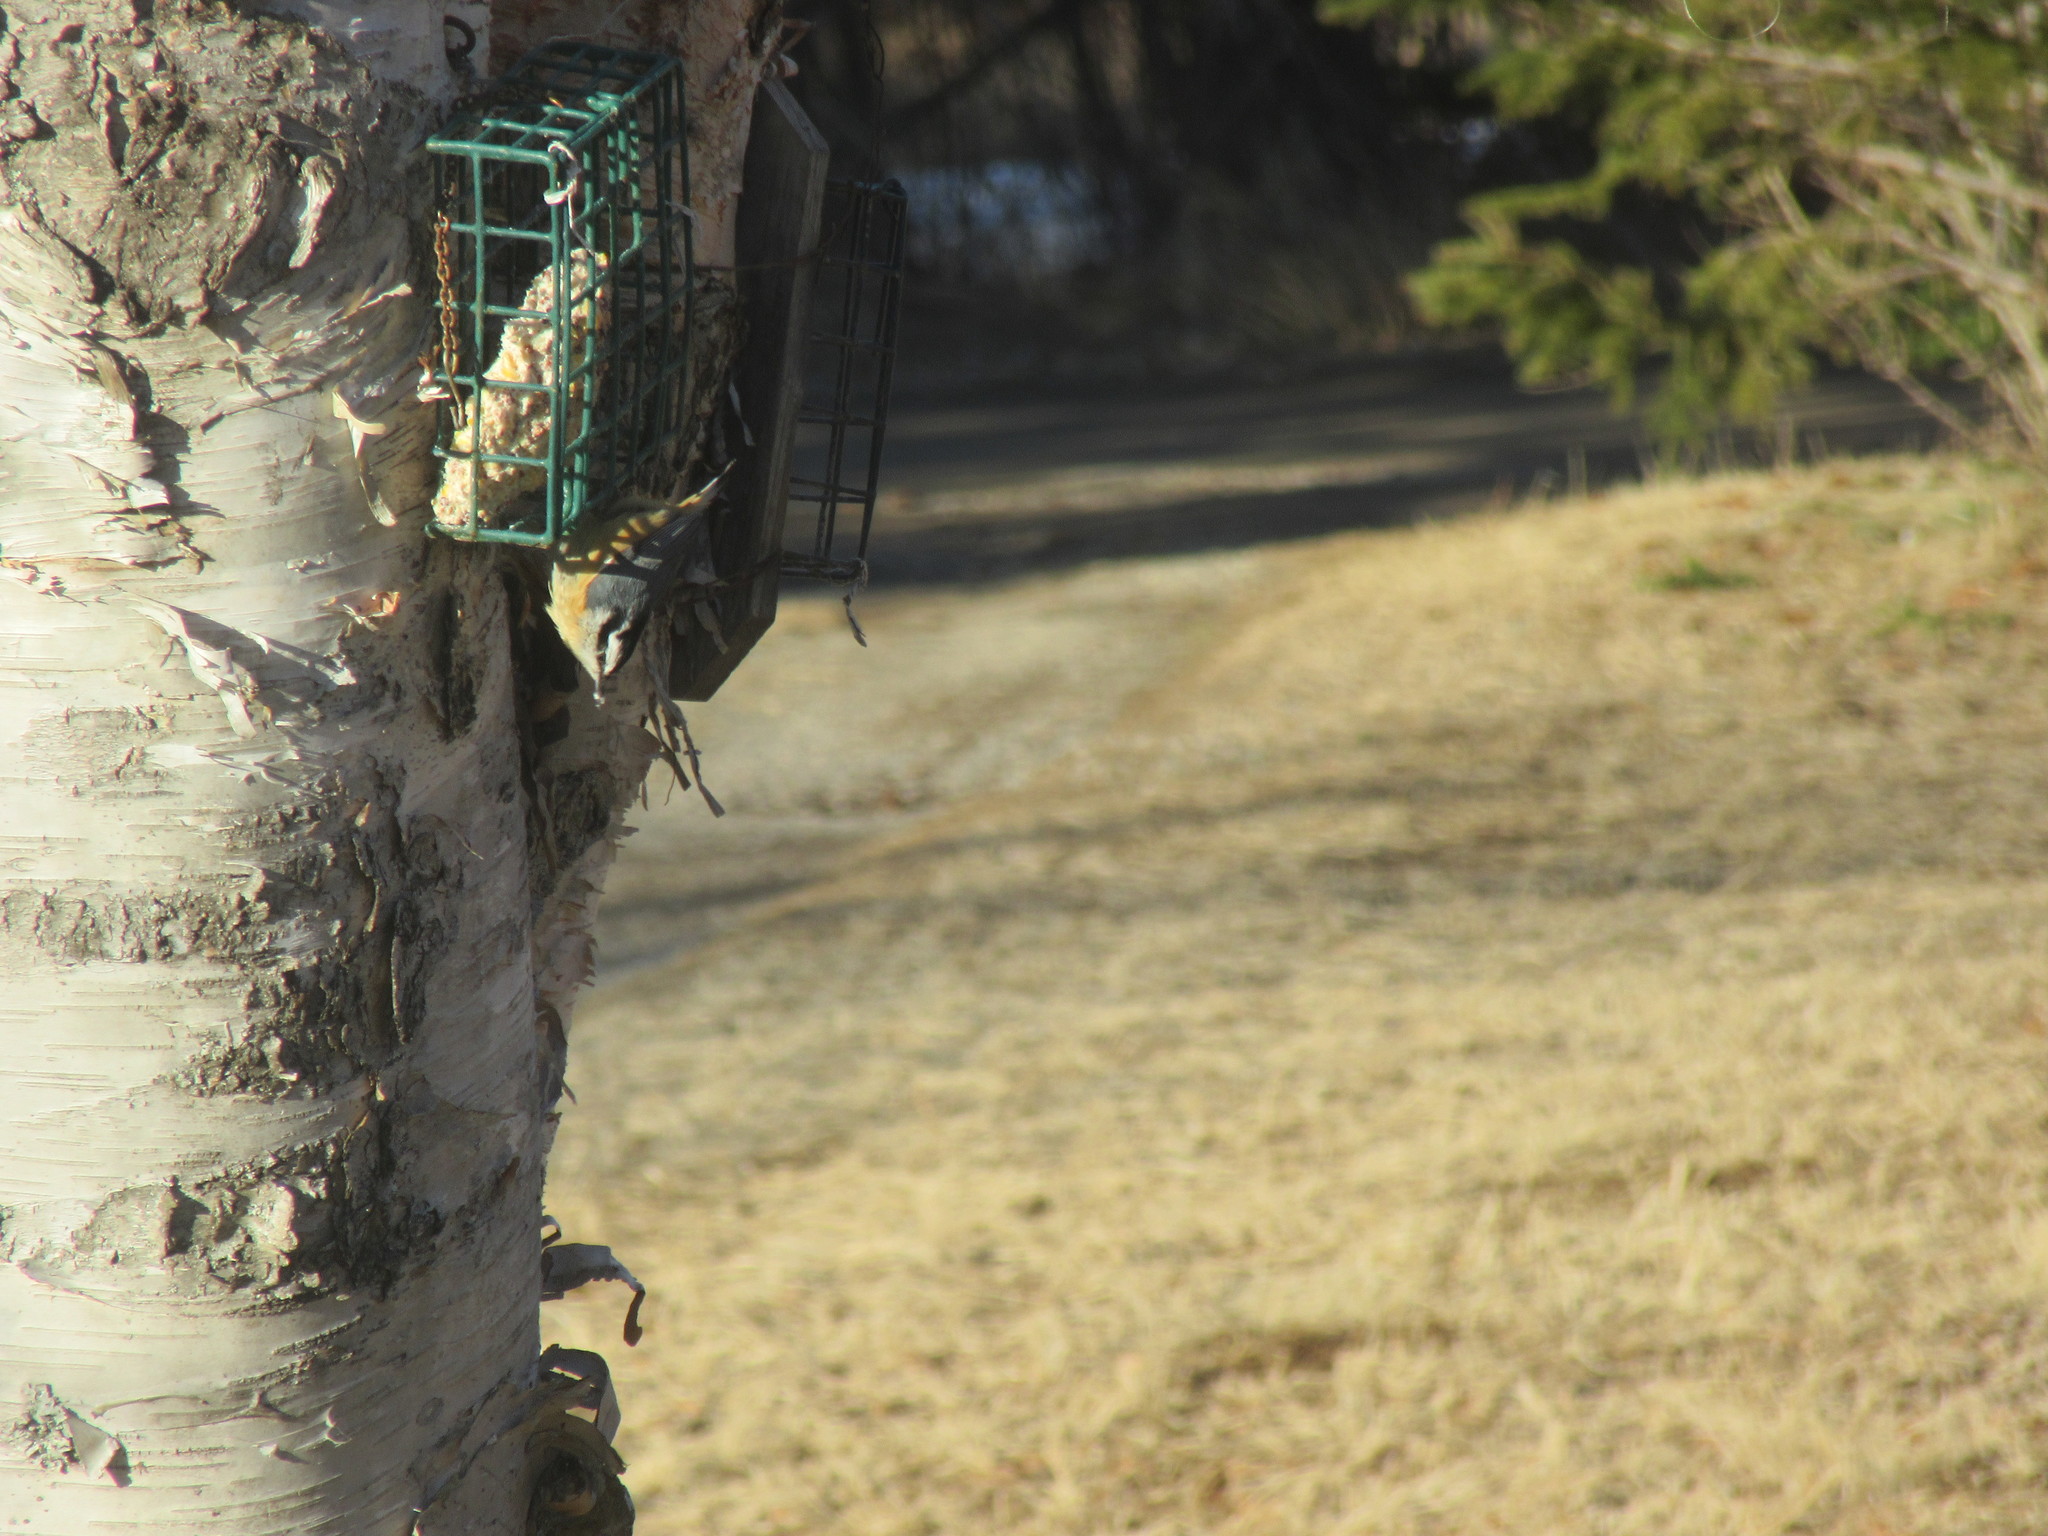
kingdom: Animalia
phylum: Chordata
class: Aves
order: Passeriformes
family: Sittidae
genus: Sitta
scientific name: Sitta canadensis
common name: Red-breasted nuthatch
